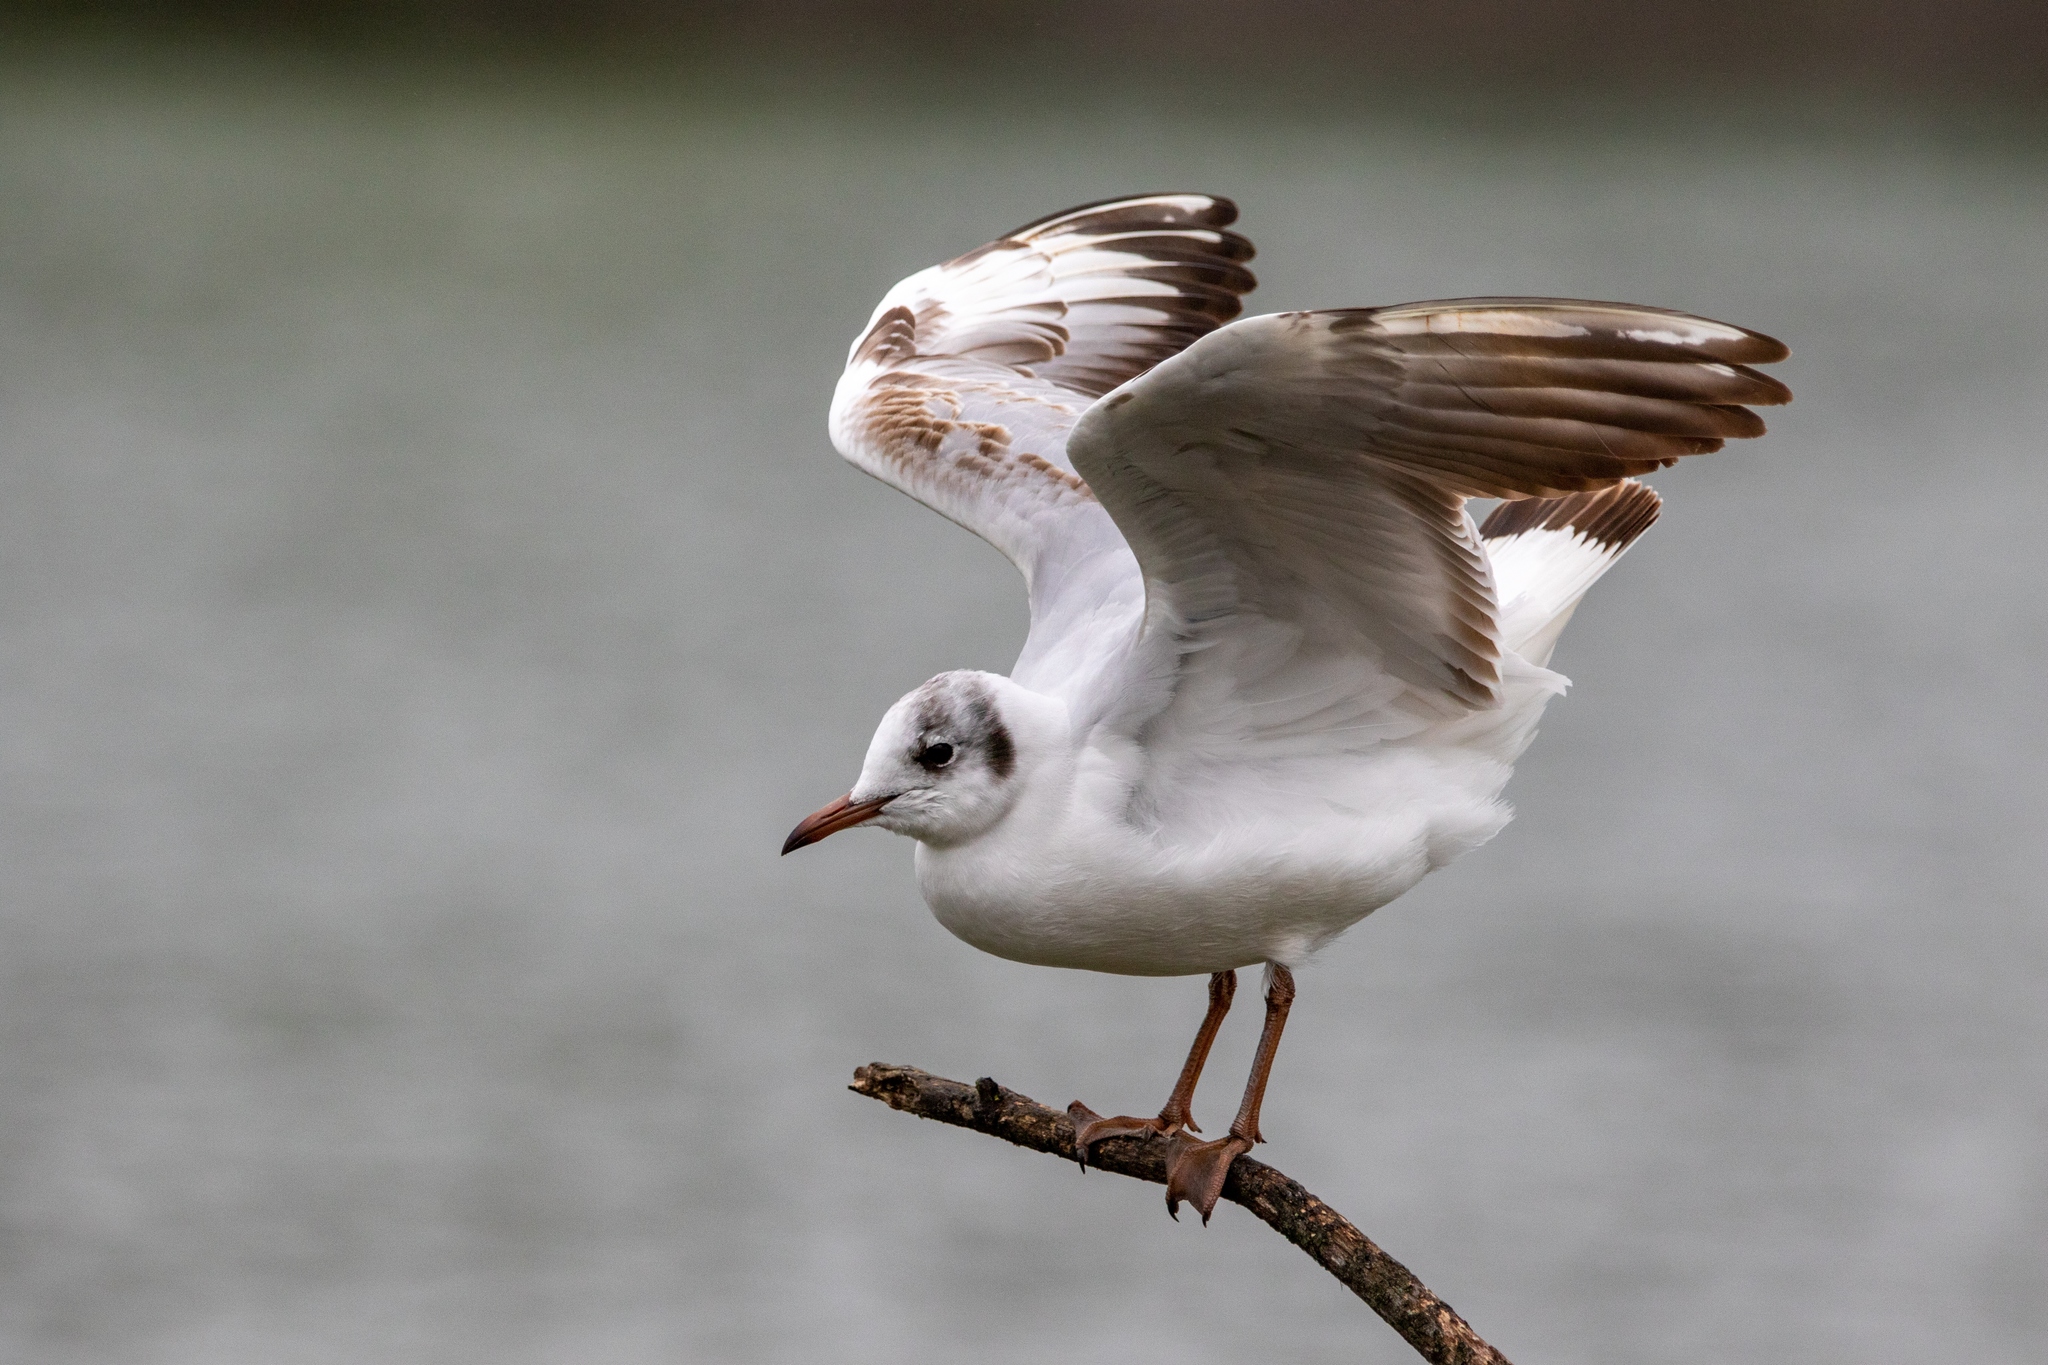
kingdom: Animalia
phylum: Chordata
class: Aves
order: Charadriiformes
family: Laridae
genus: Chroicocephalus
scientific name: Chroicocephalus ridibundus
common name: Black-headed gull
